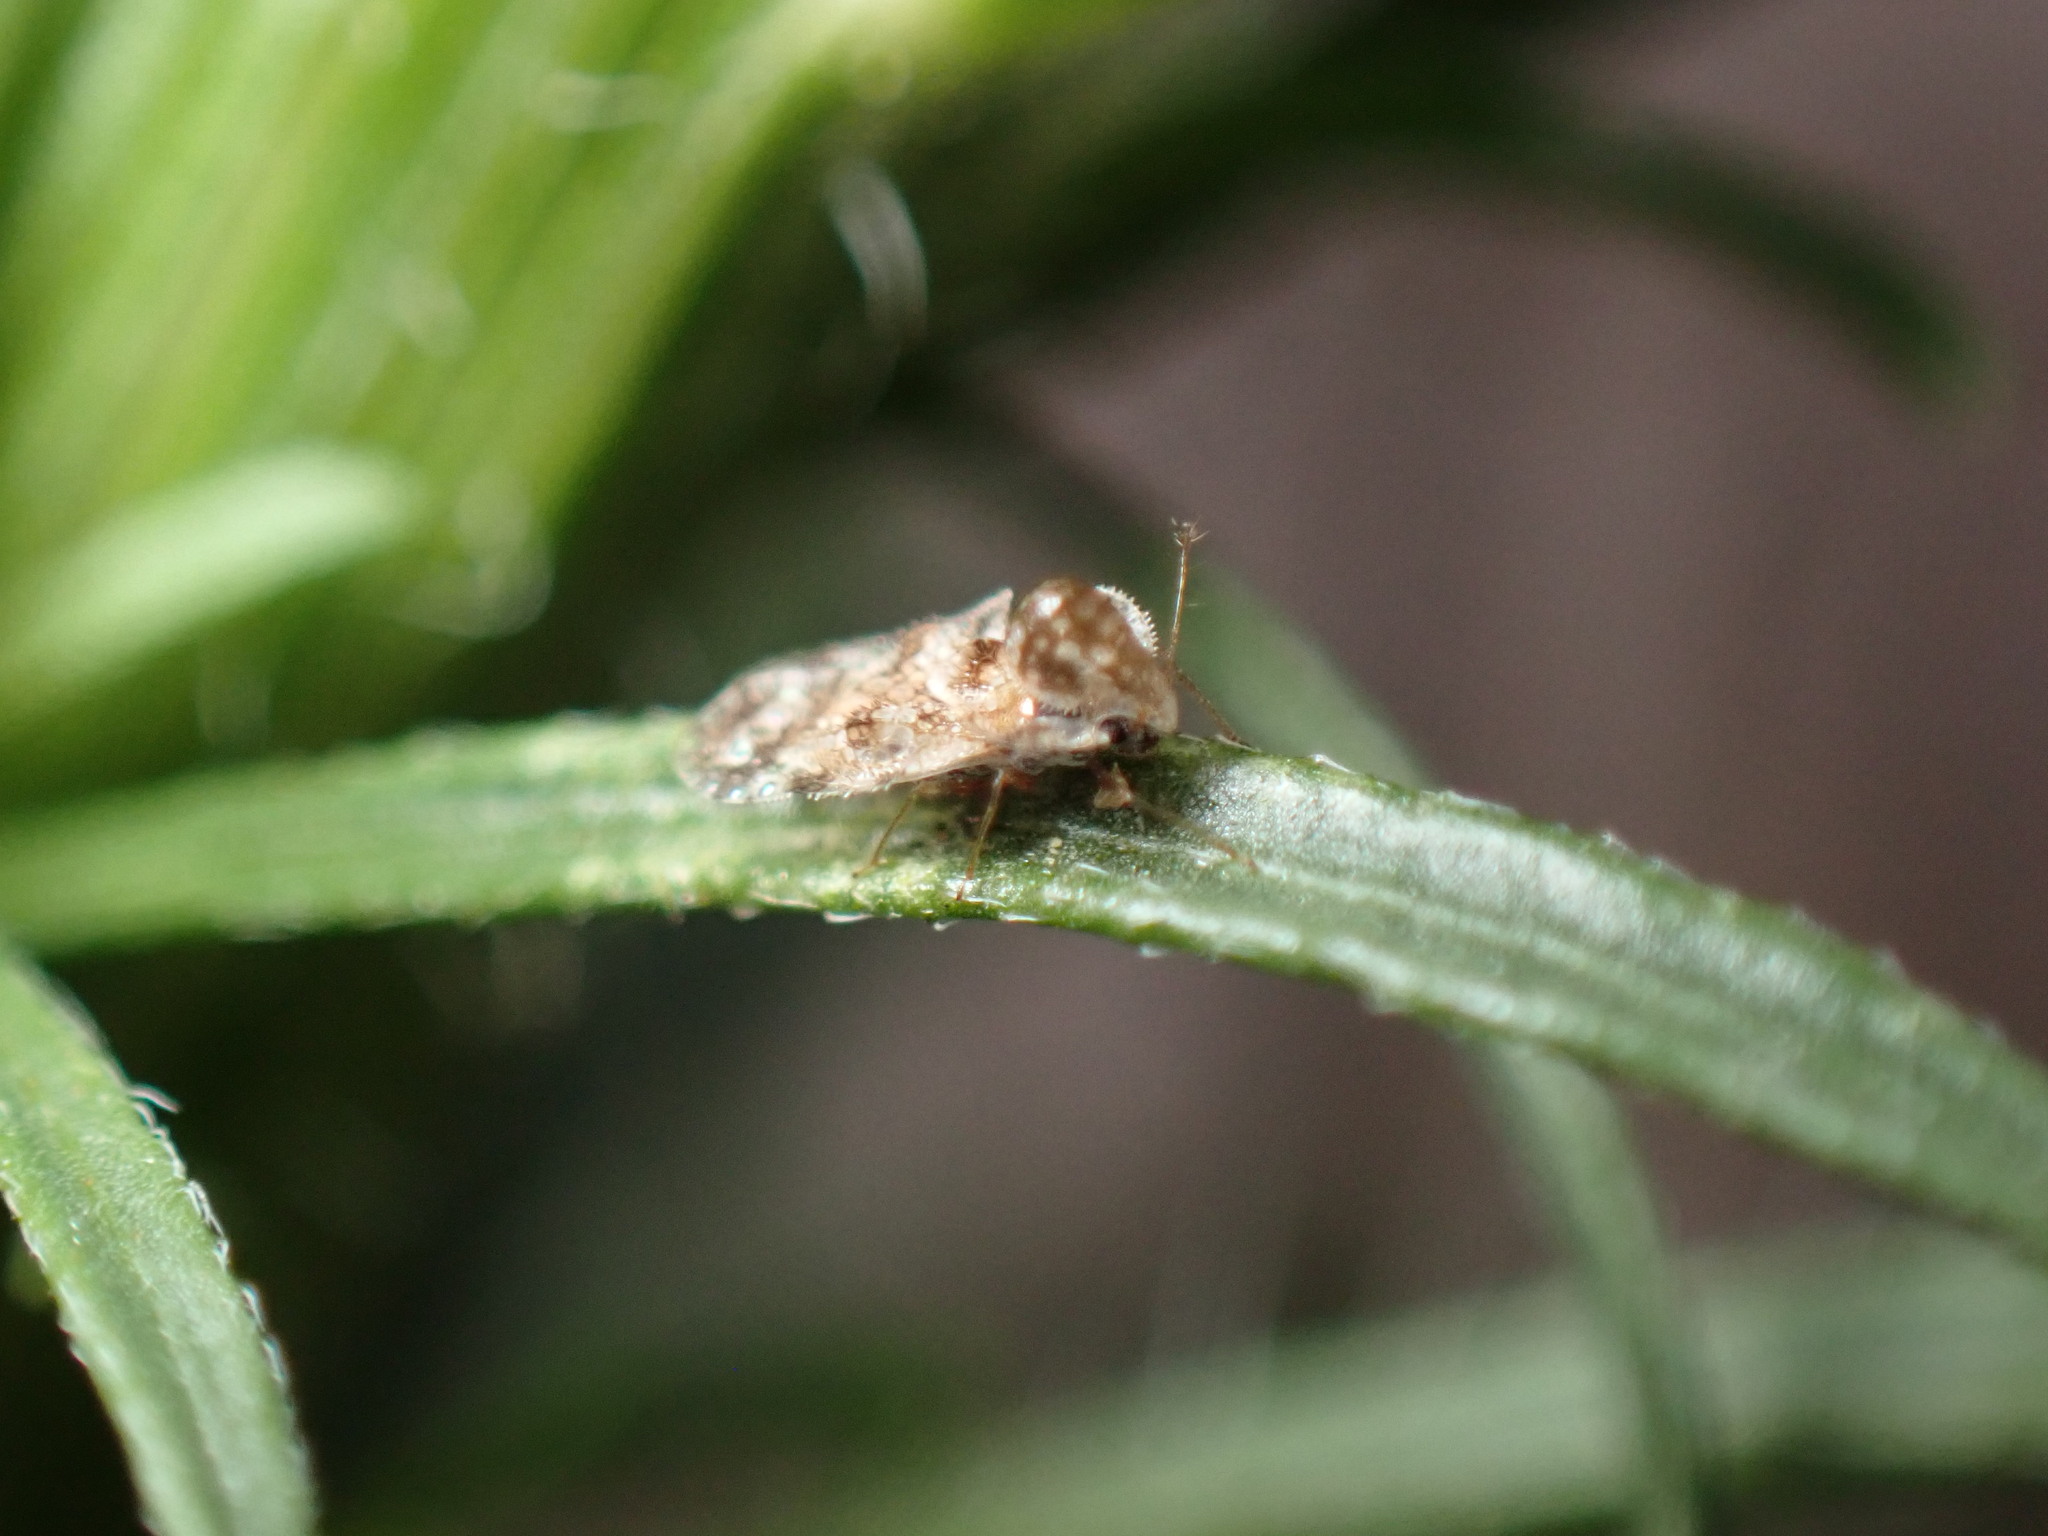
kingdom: Animalia
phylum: Arthropoda
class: Insecta
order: Hemiptera
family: Tingidae
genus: Corythucha
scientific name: Corythucha morrilli
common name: Morrill lace bug
